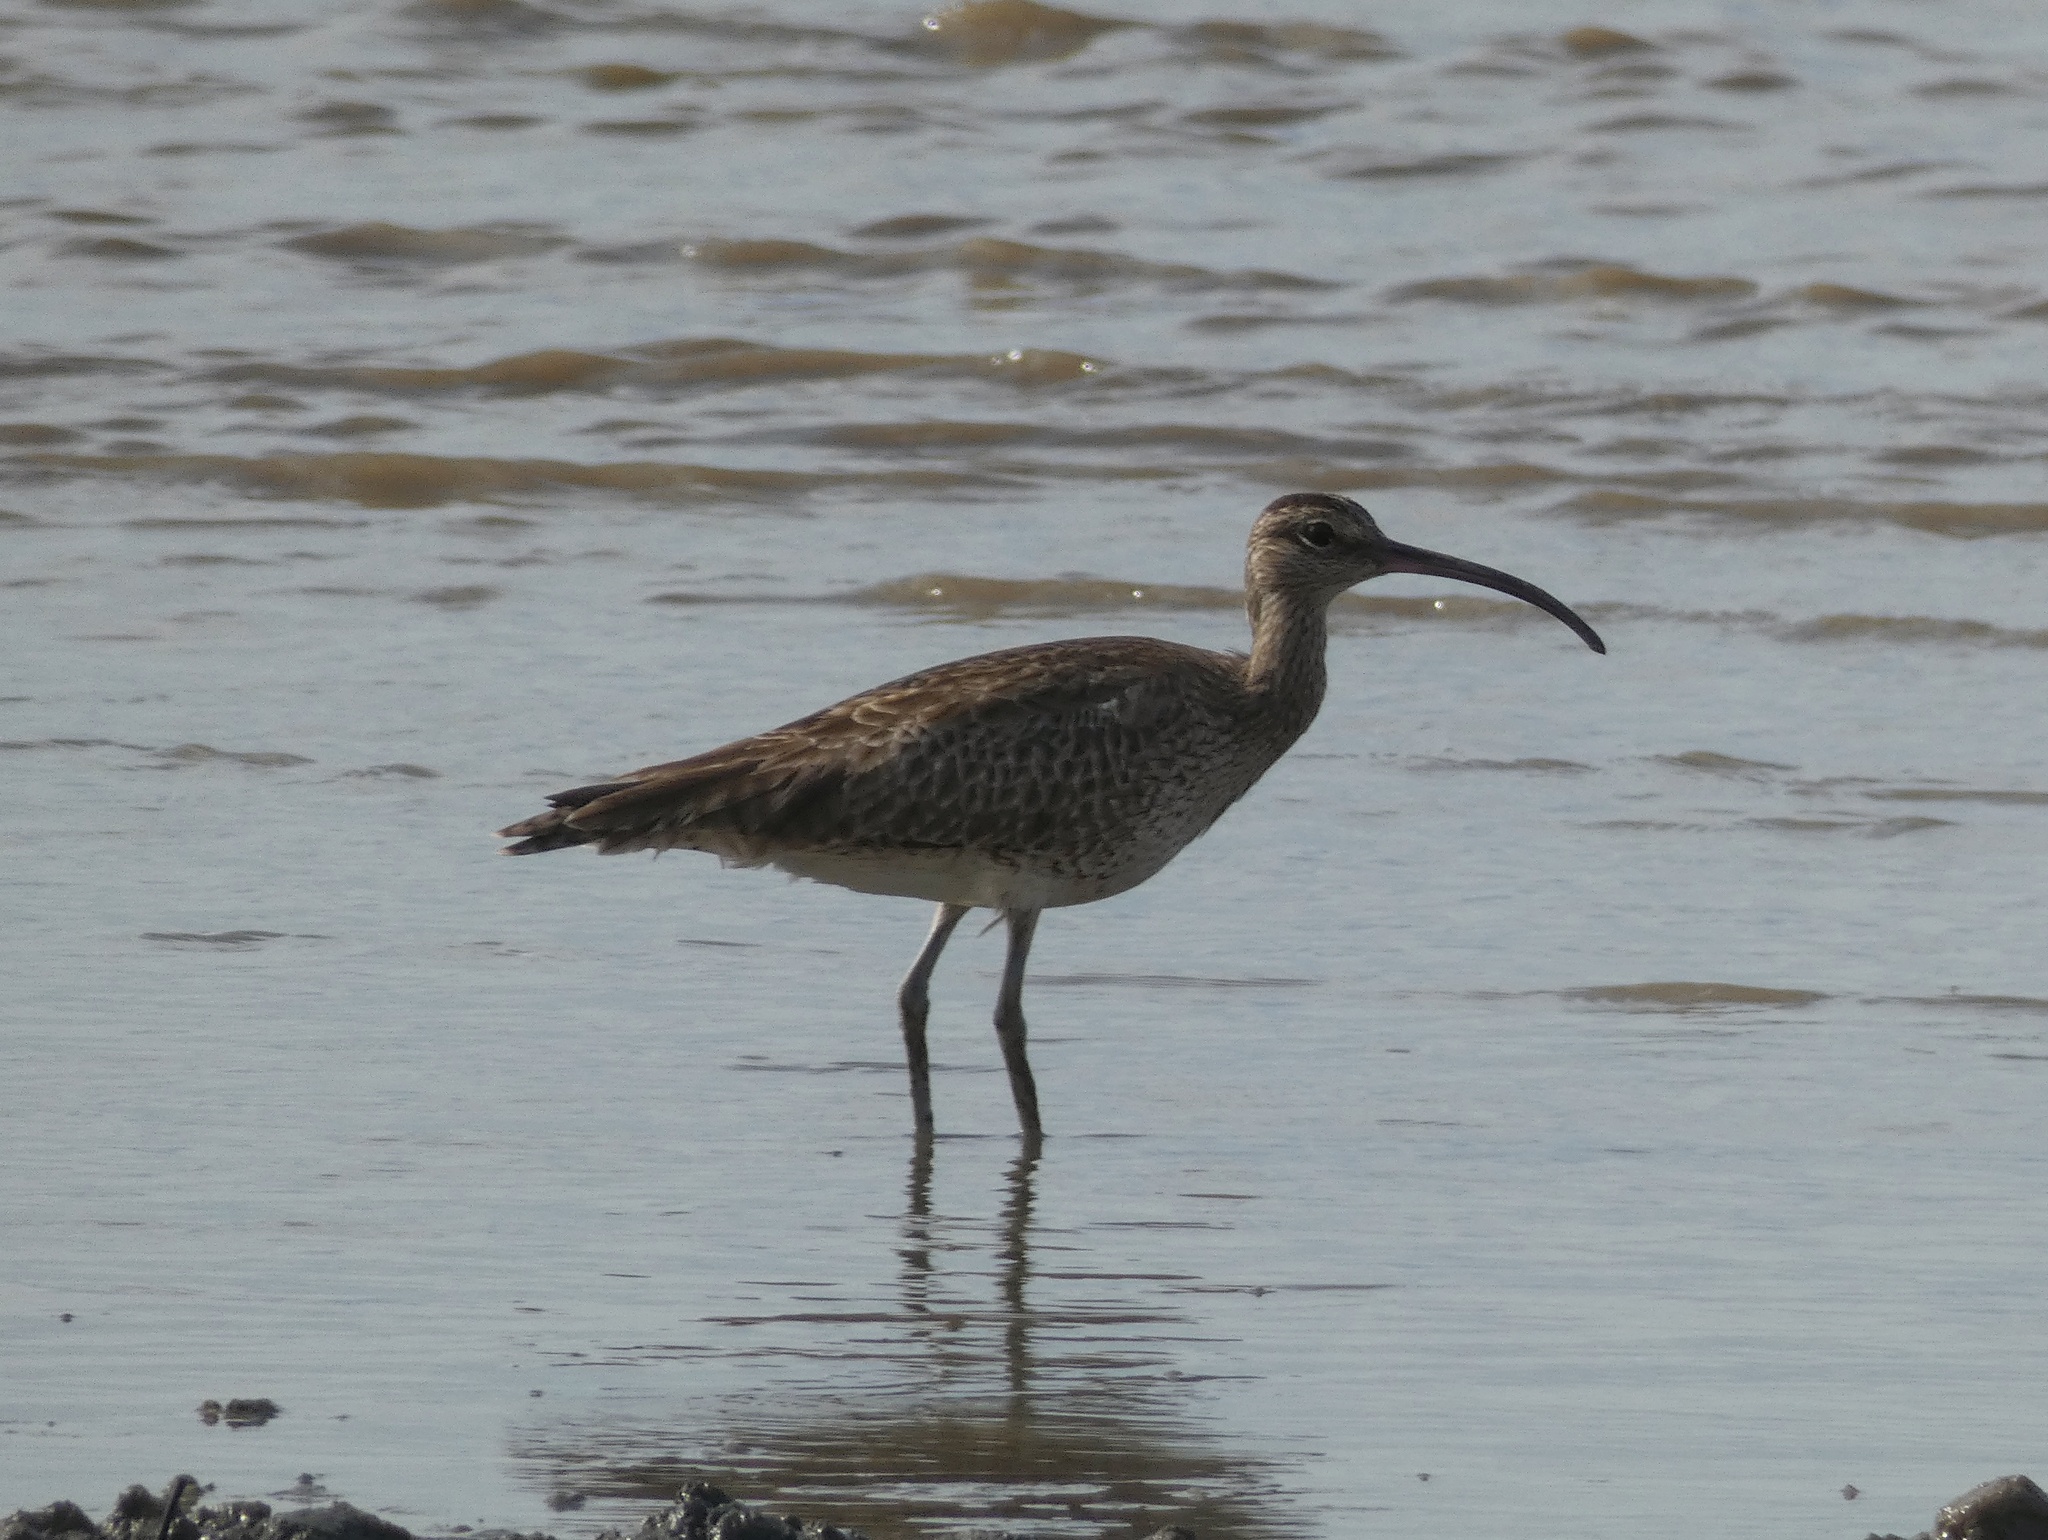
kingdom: Animalia
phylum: Chordata
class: Aves
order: Charadriiformes
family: Scolopacidae
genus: Numenius
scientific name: Numenius phaeopus
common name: Whimbrel
